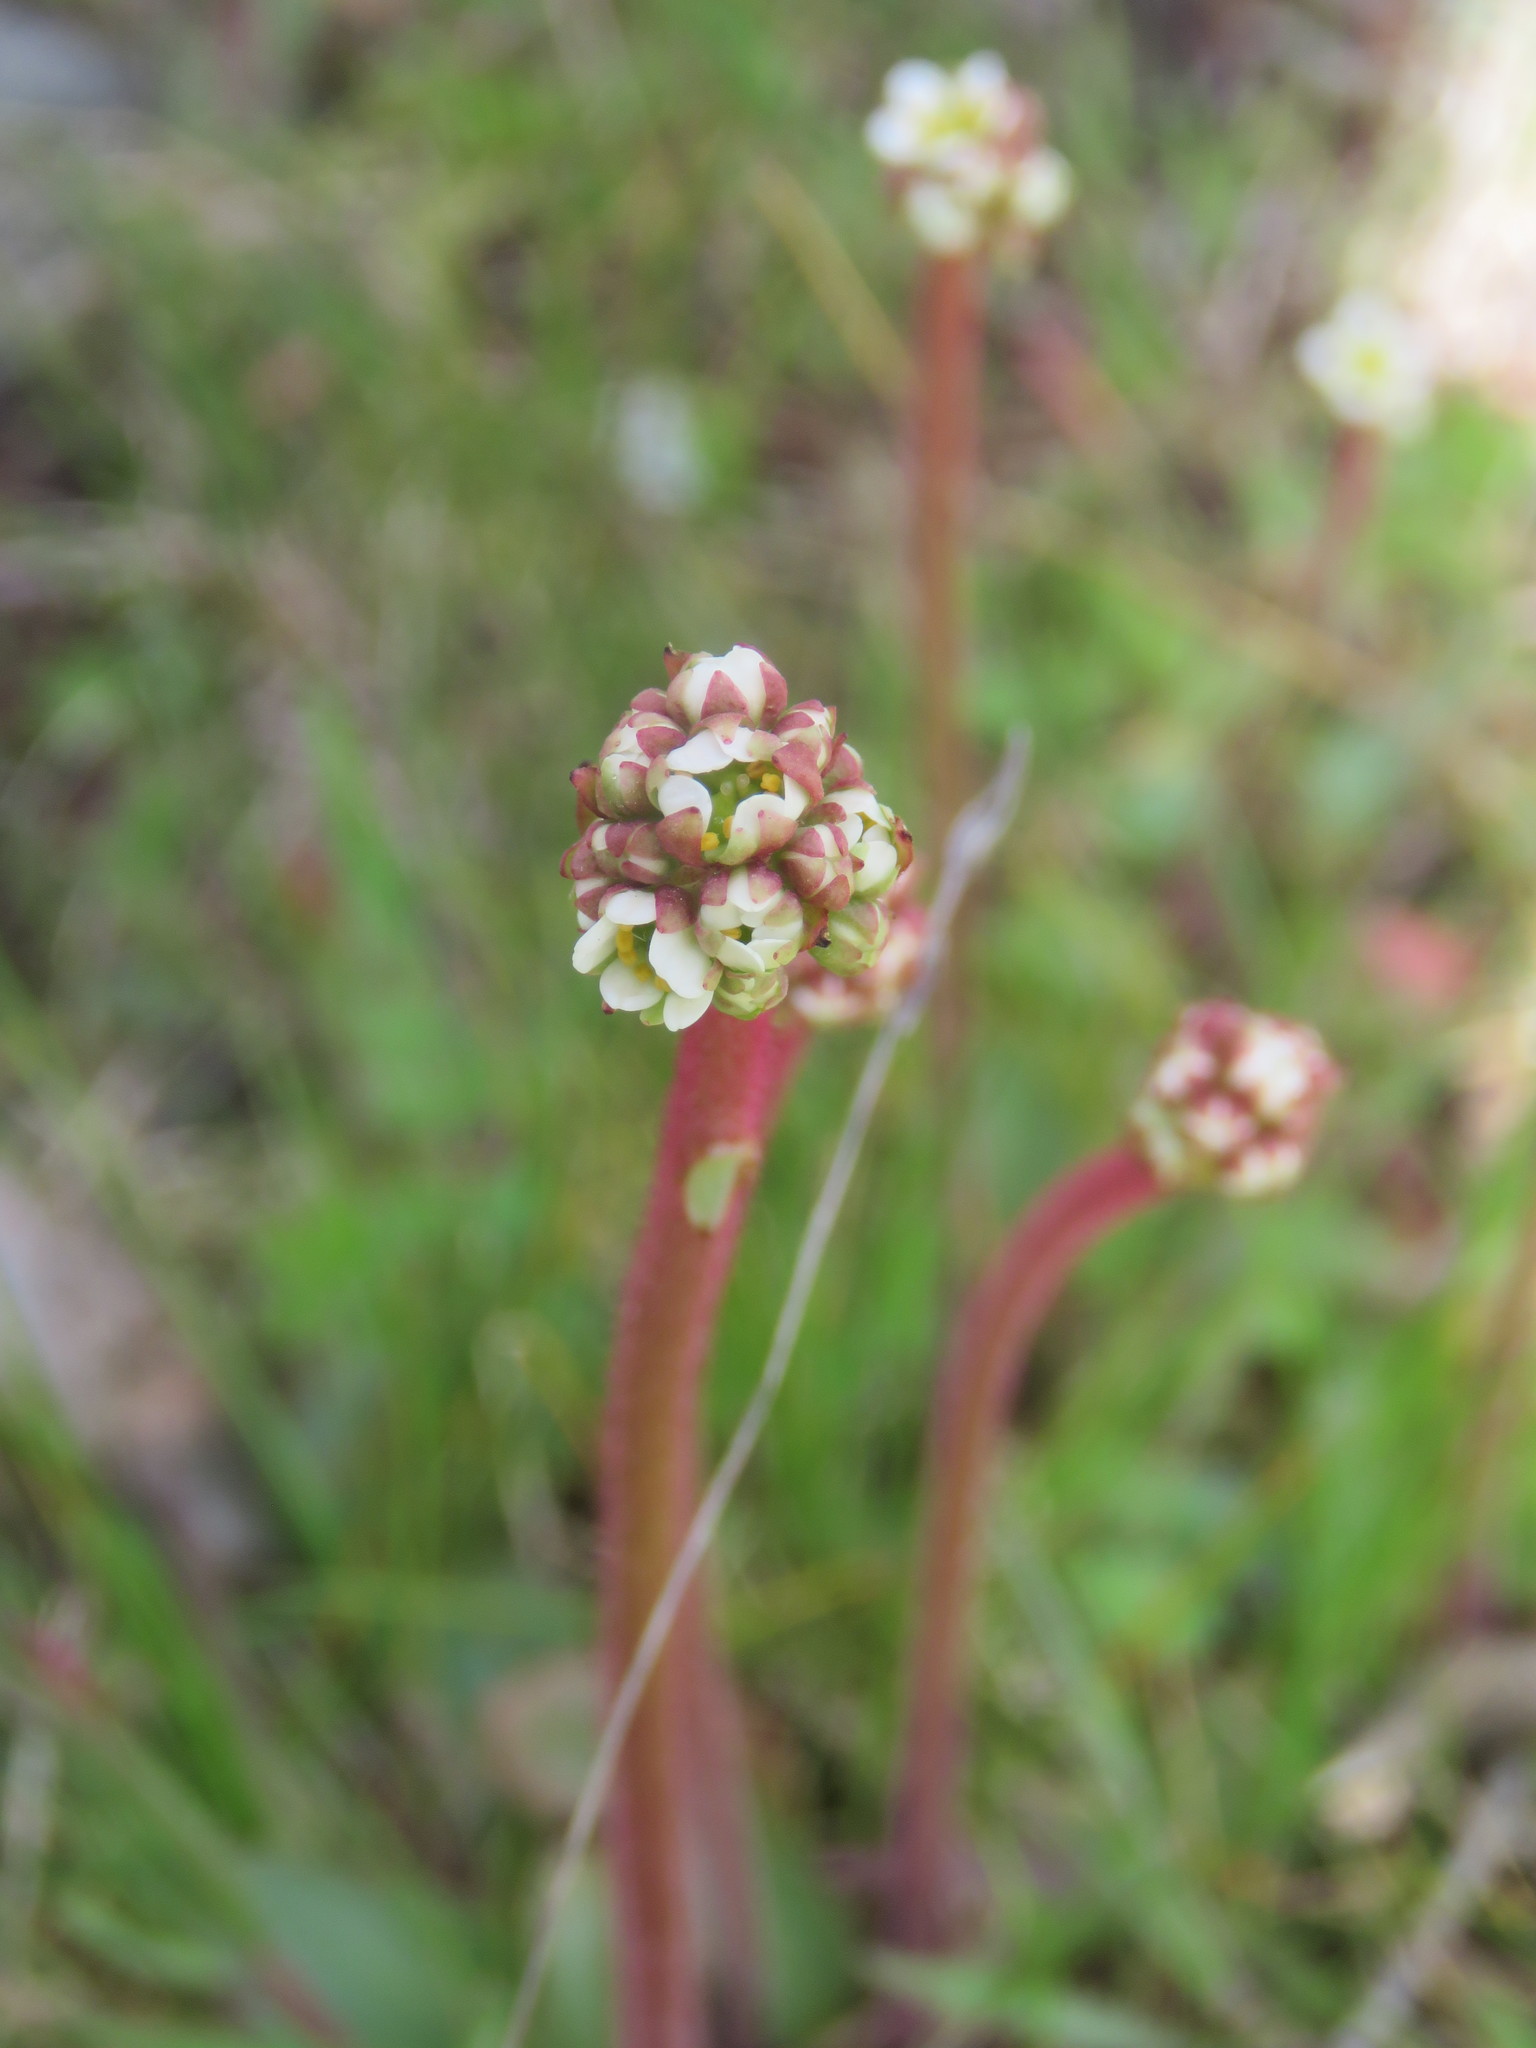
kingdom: Plantae
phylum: Tracheophyta
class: Magnoliopsida
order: Saxifragales
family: Saxifragaceae
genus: Micranthes
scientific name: Micranthes integrifolia
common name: Wholeleaf saxifrage
